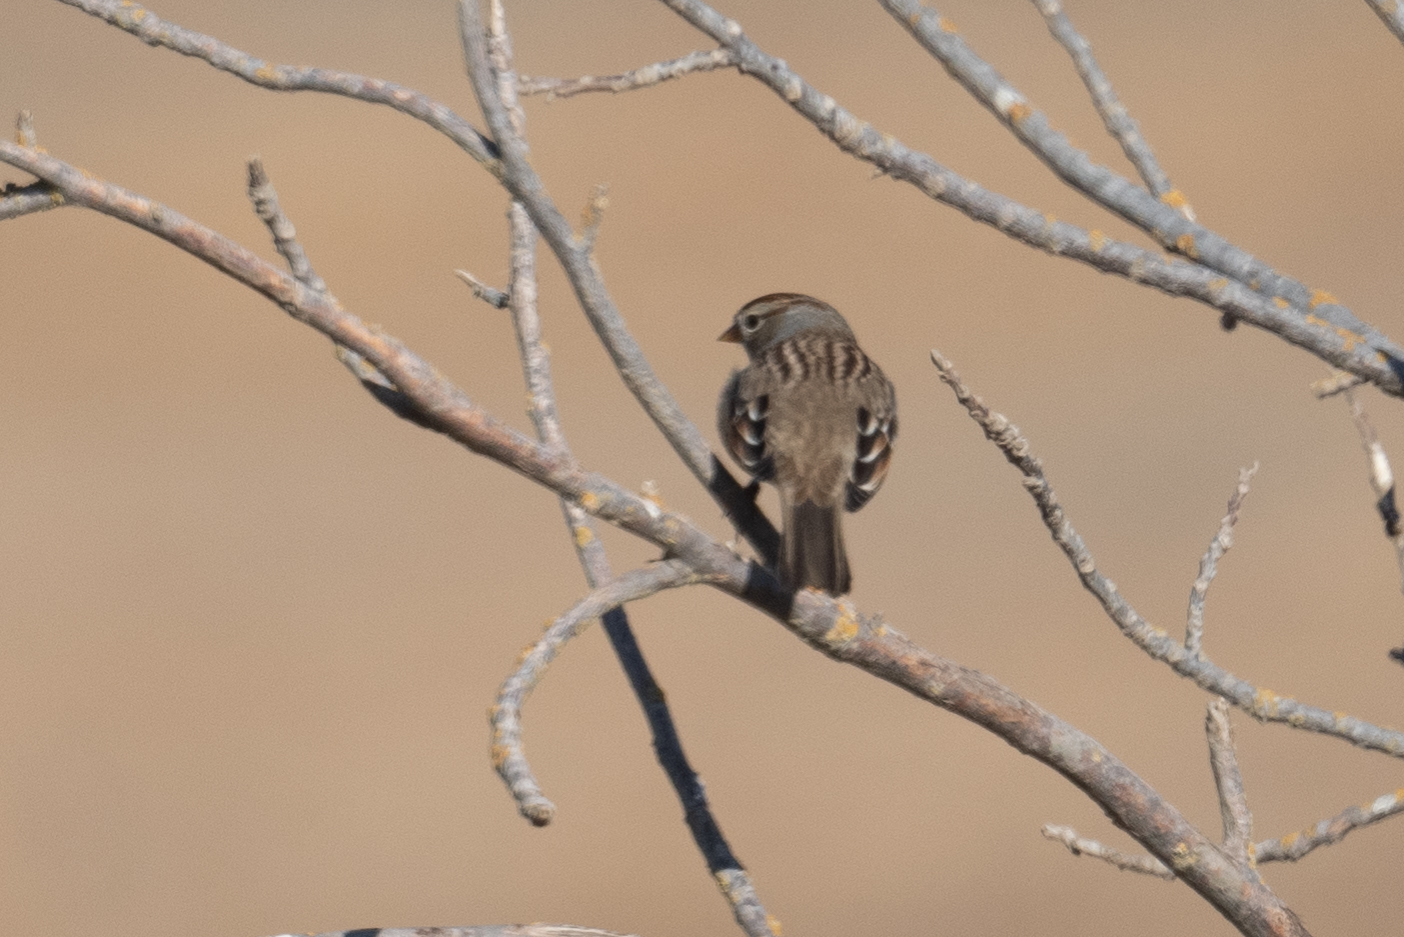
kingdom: Animalia
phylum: Chordata
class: Aves
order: Passeriformes
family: Passerellidae
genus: Zonotrichia
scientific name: Zonotrichia leucophrys
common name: White-crowned sparrow
